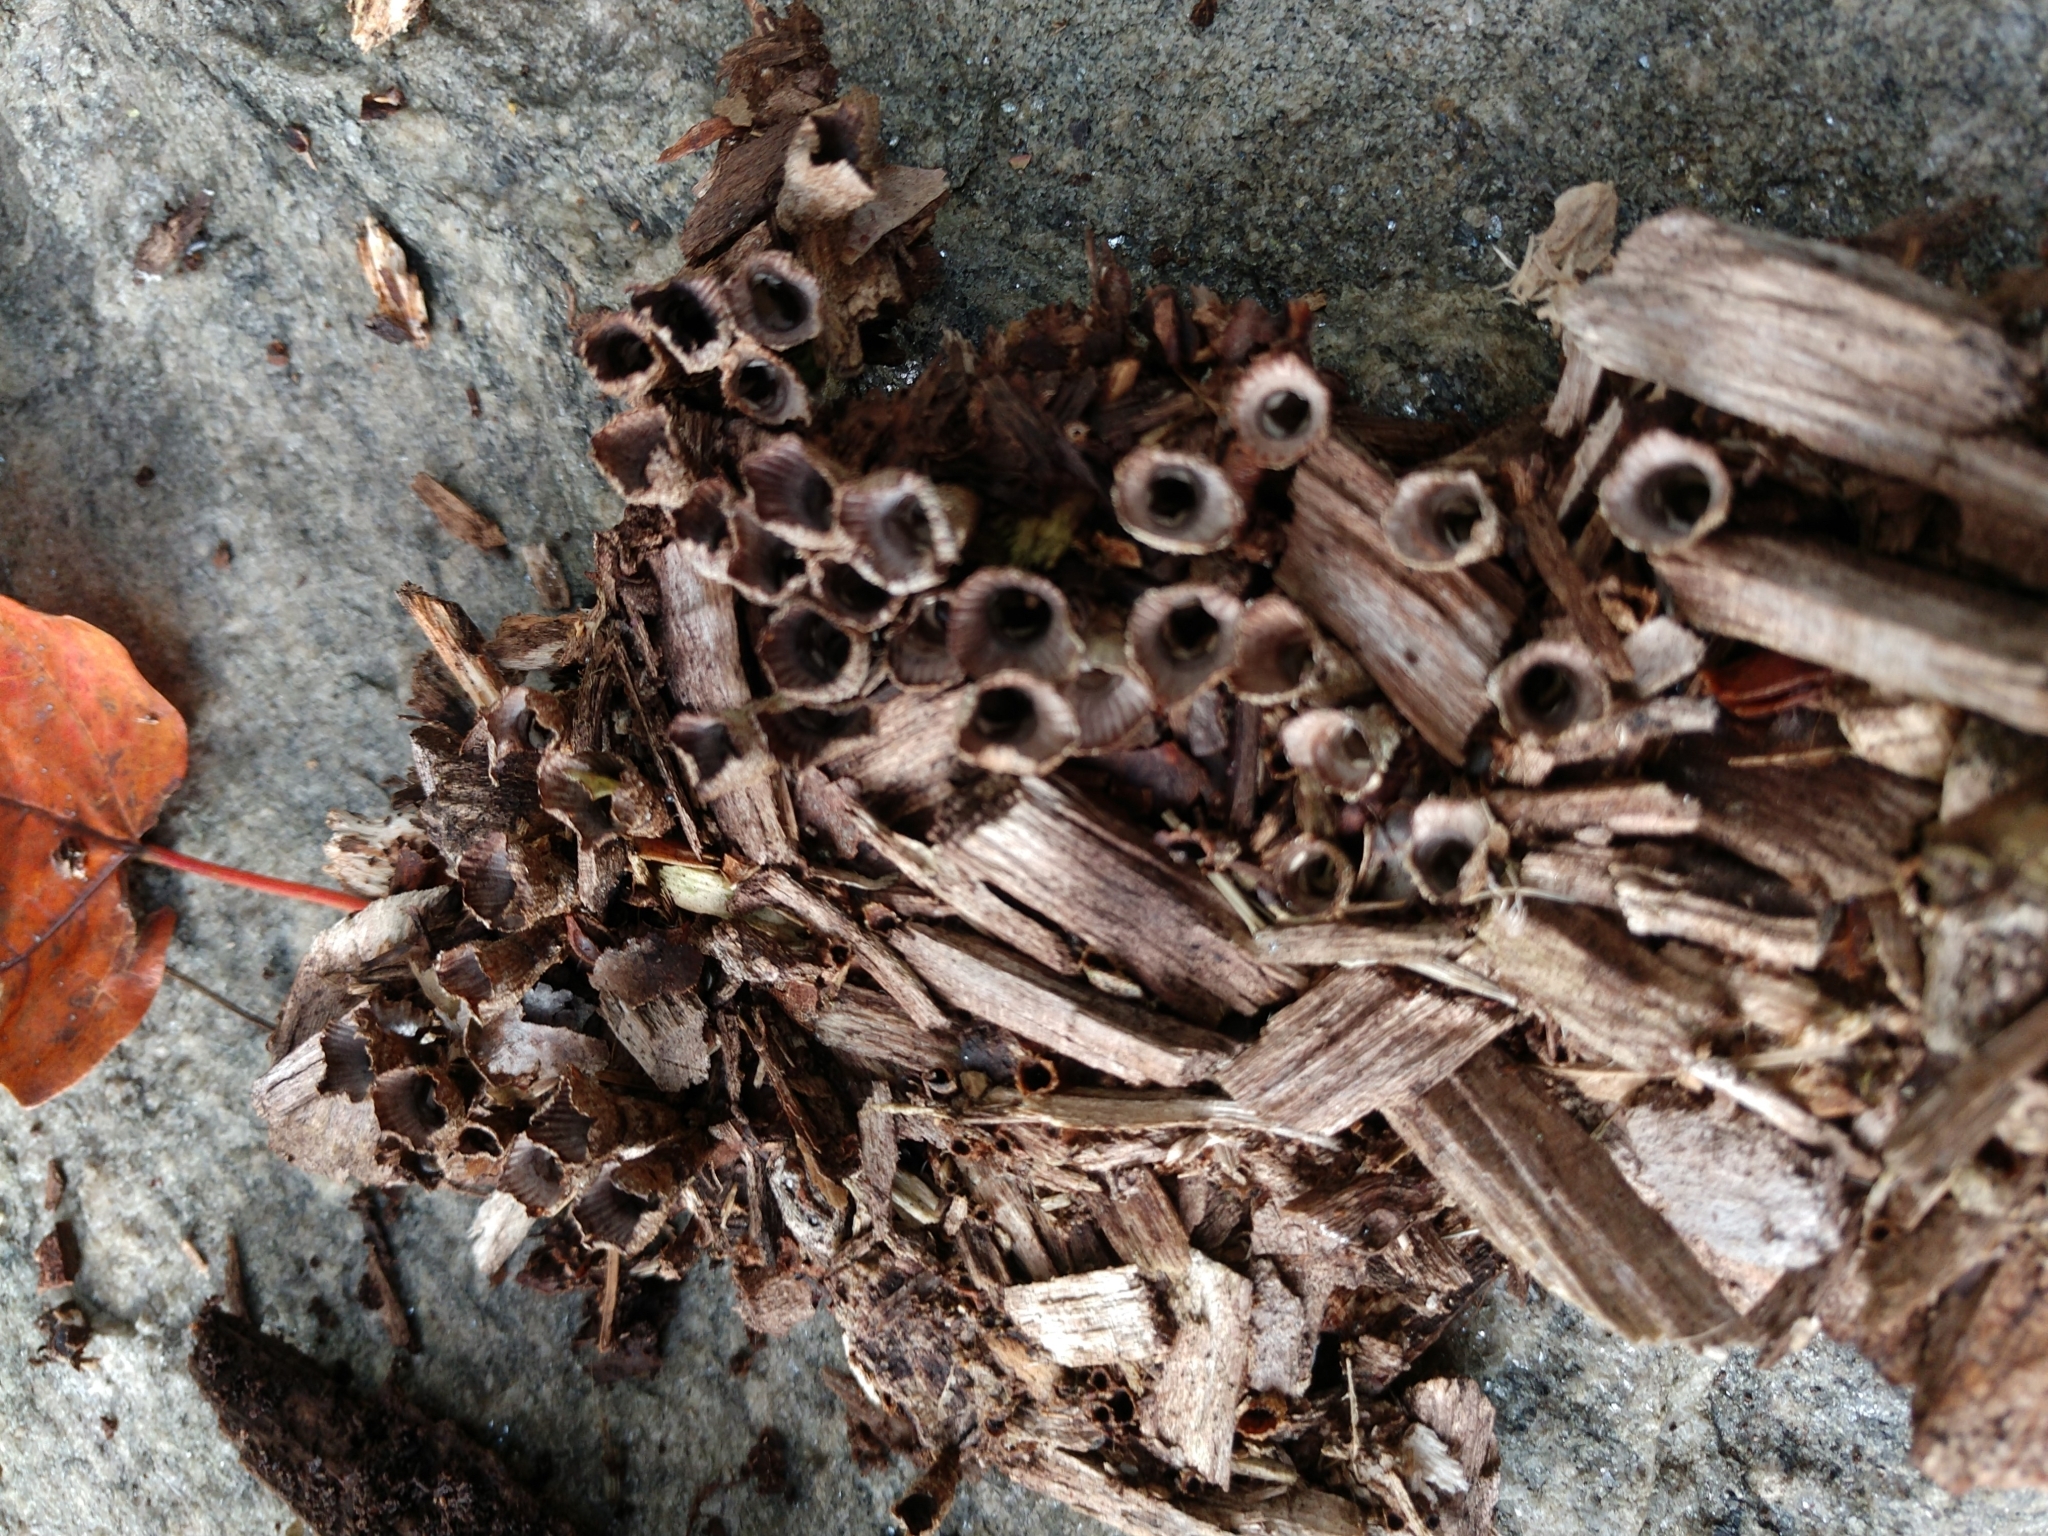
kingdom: Fungi
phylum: Basidiomycota
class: Agaricomycetes
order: Agaricales
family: Agaricaceae
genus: Cyathus
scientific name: Cyathus striatus
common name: Fluted bird's nest
